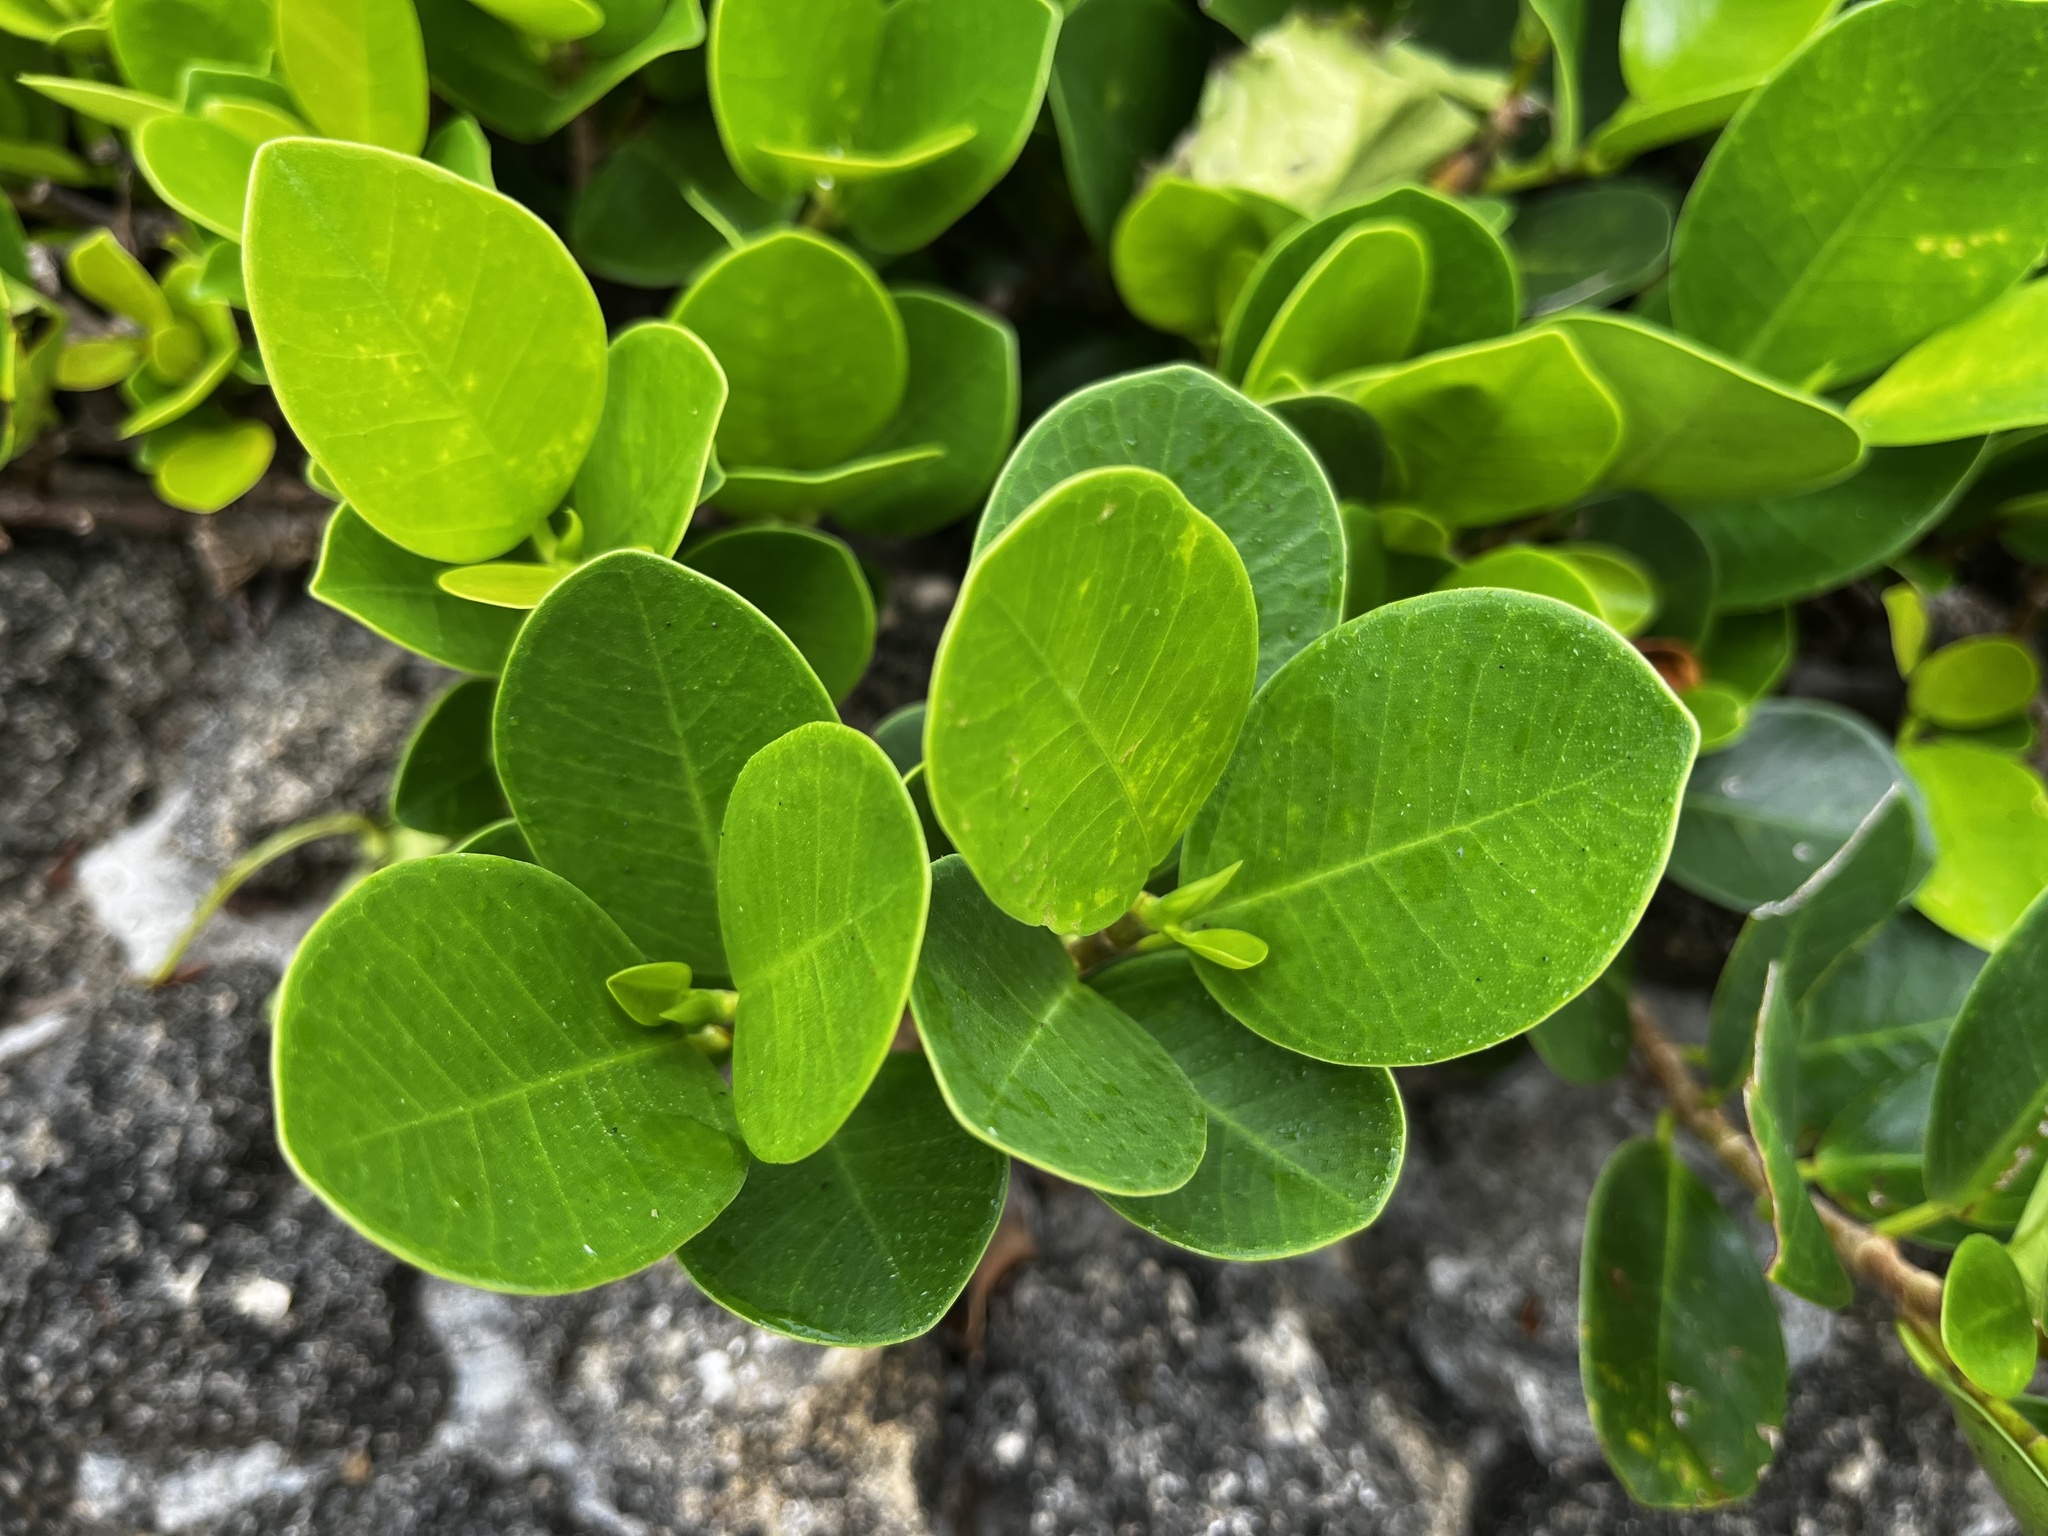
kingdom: Plantae
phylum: Tracheophyta
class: Magnoliopsida
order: Rosales
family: Moraceae
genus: Ficus
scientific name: Ficus microcarpa
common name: Chinese banyan
